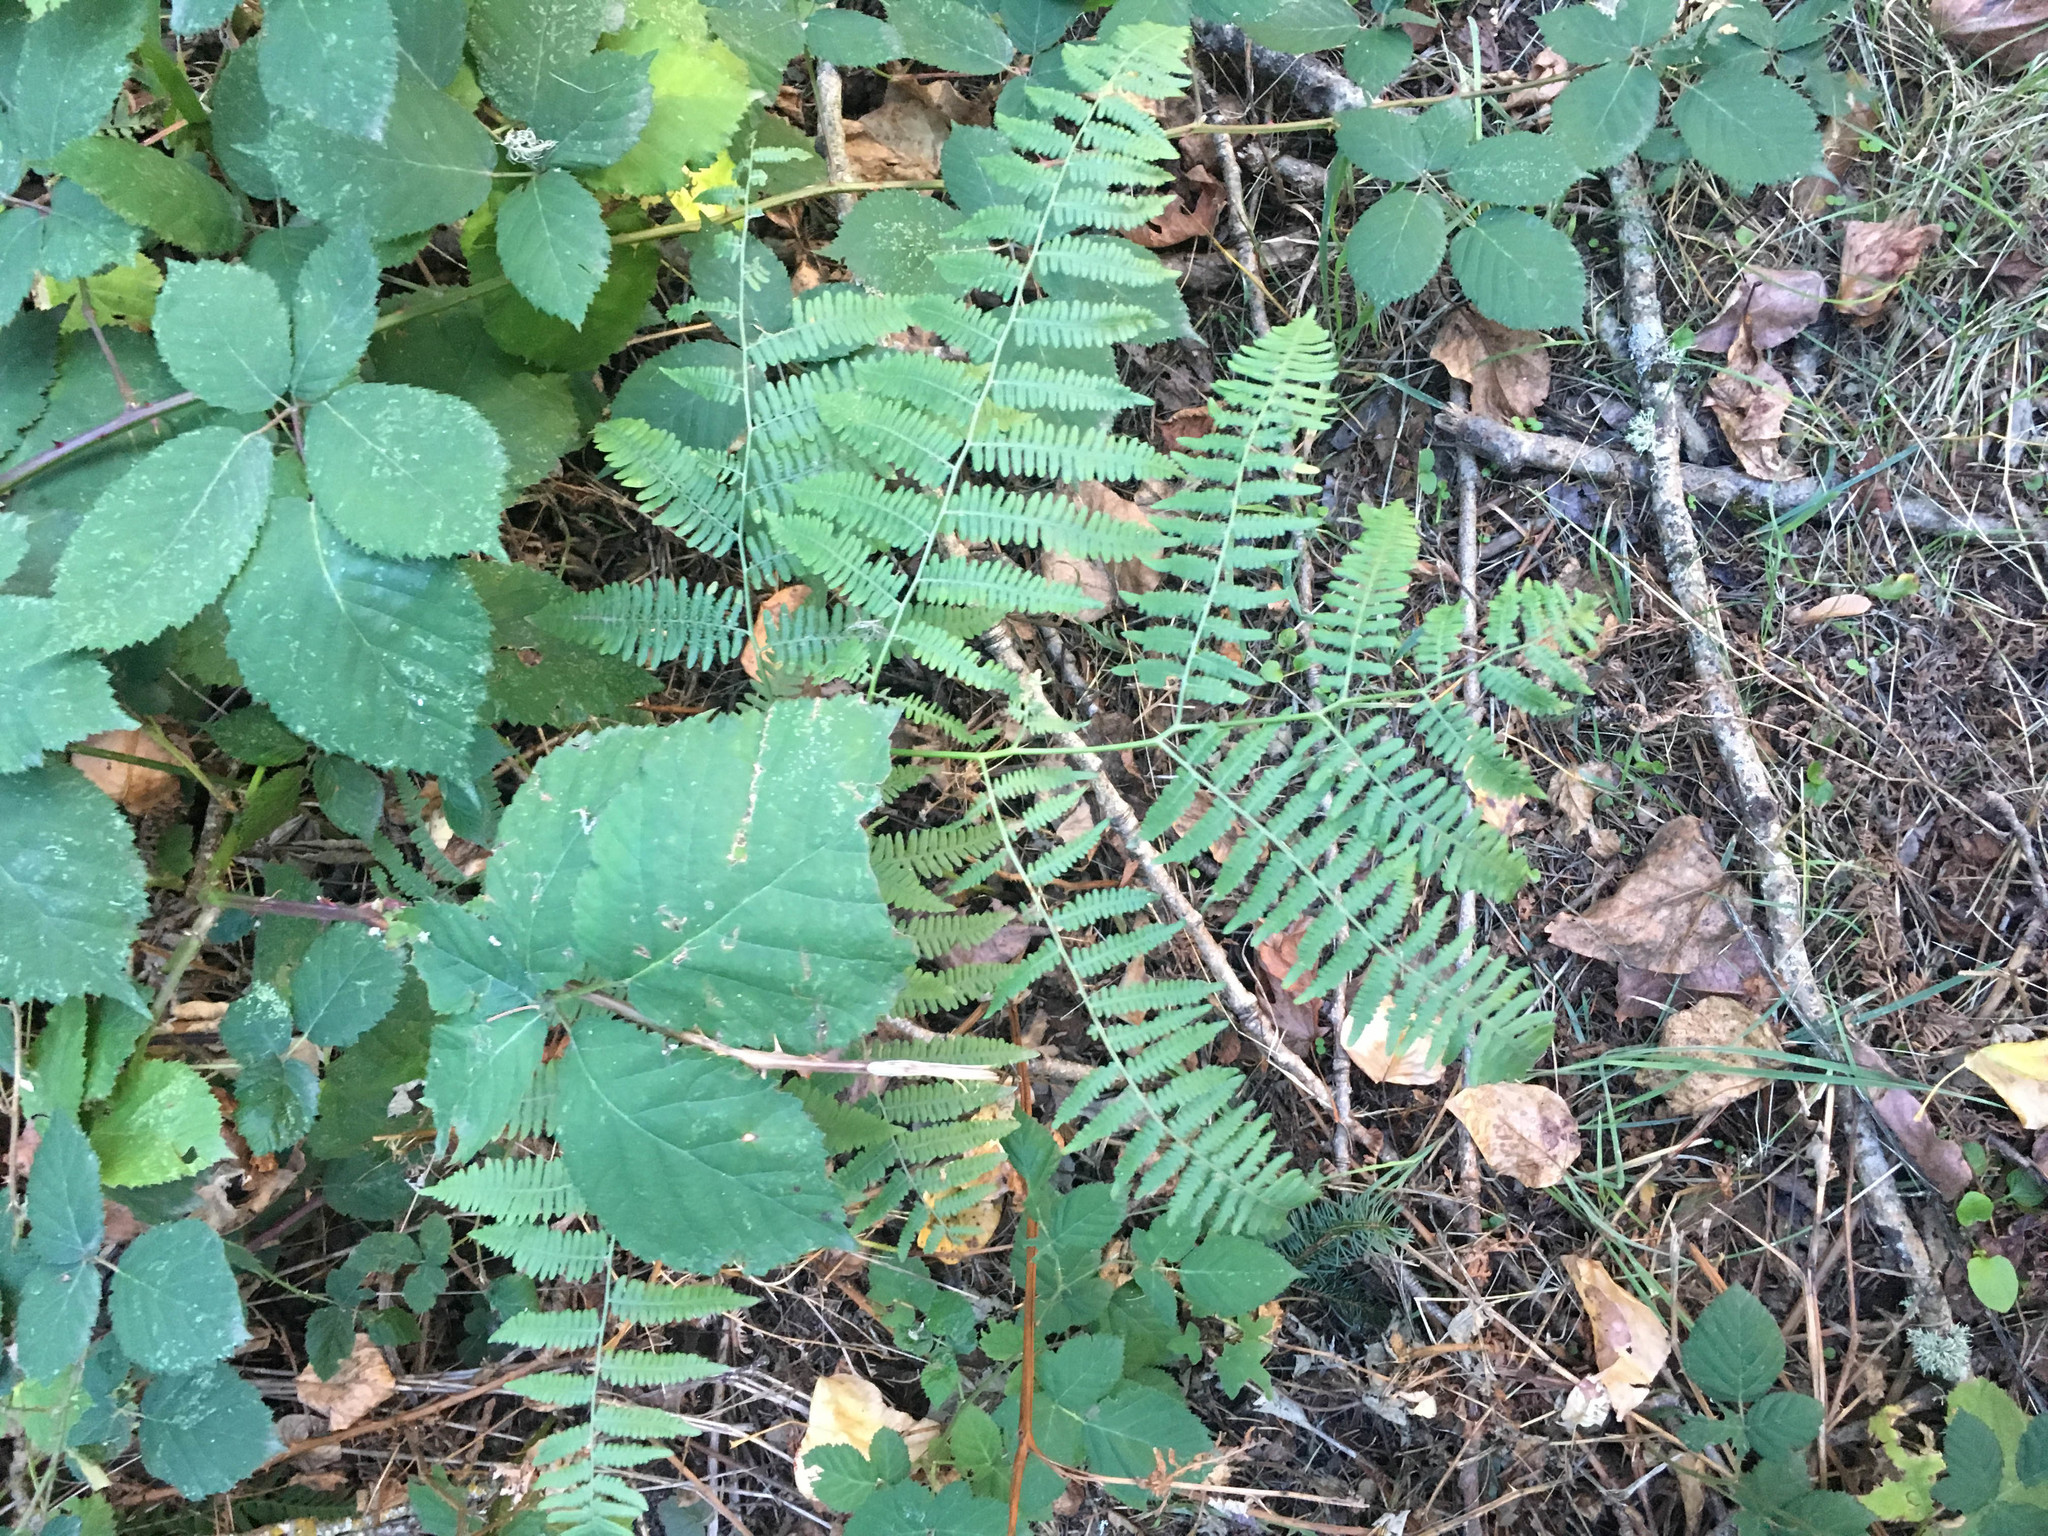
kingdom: Plantae
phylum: Tracheophyta
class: Polypodiopsida
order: Polypodiales
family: Dennstaedtiaceae
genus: Pteridium
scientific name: Pteridium aquilinum
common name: Bracken
